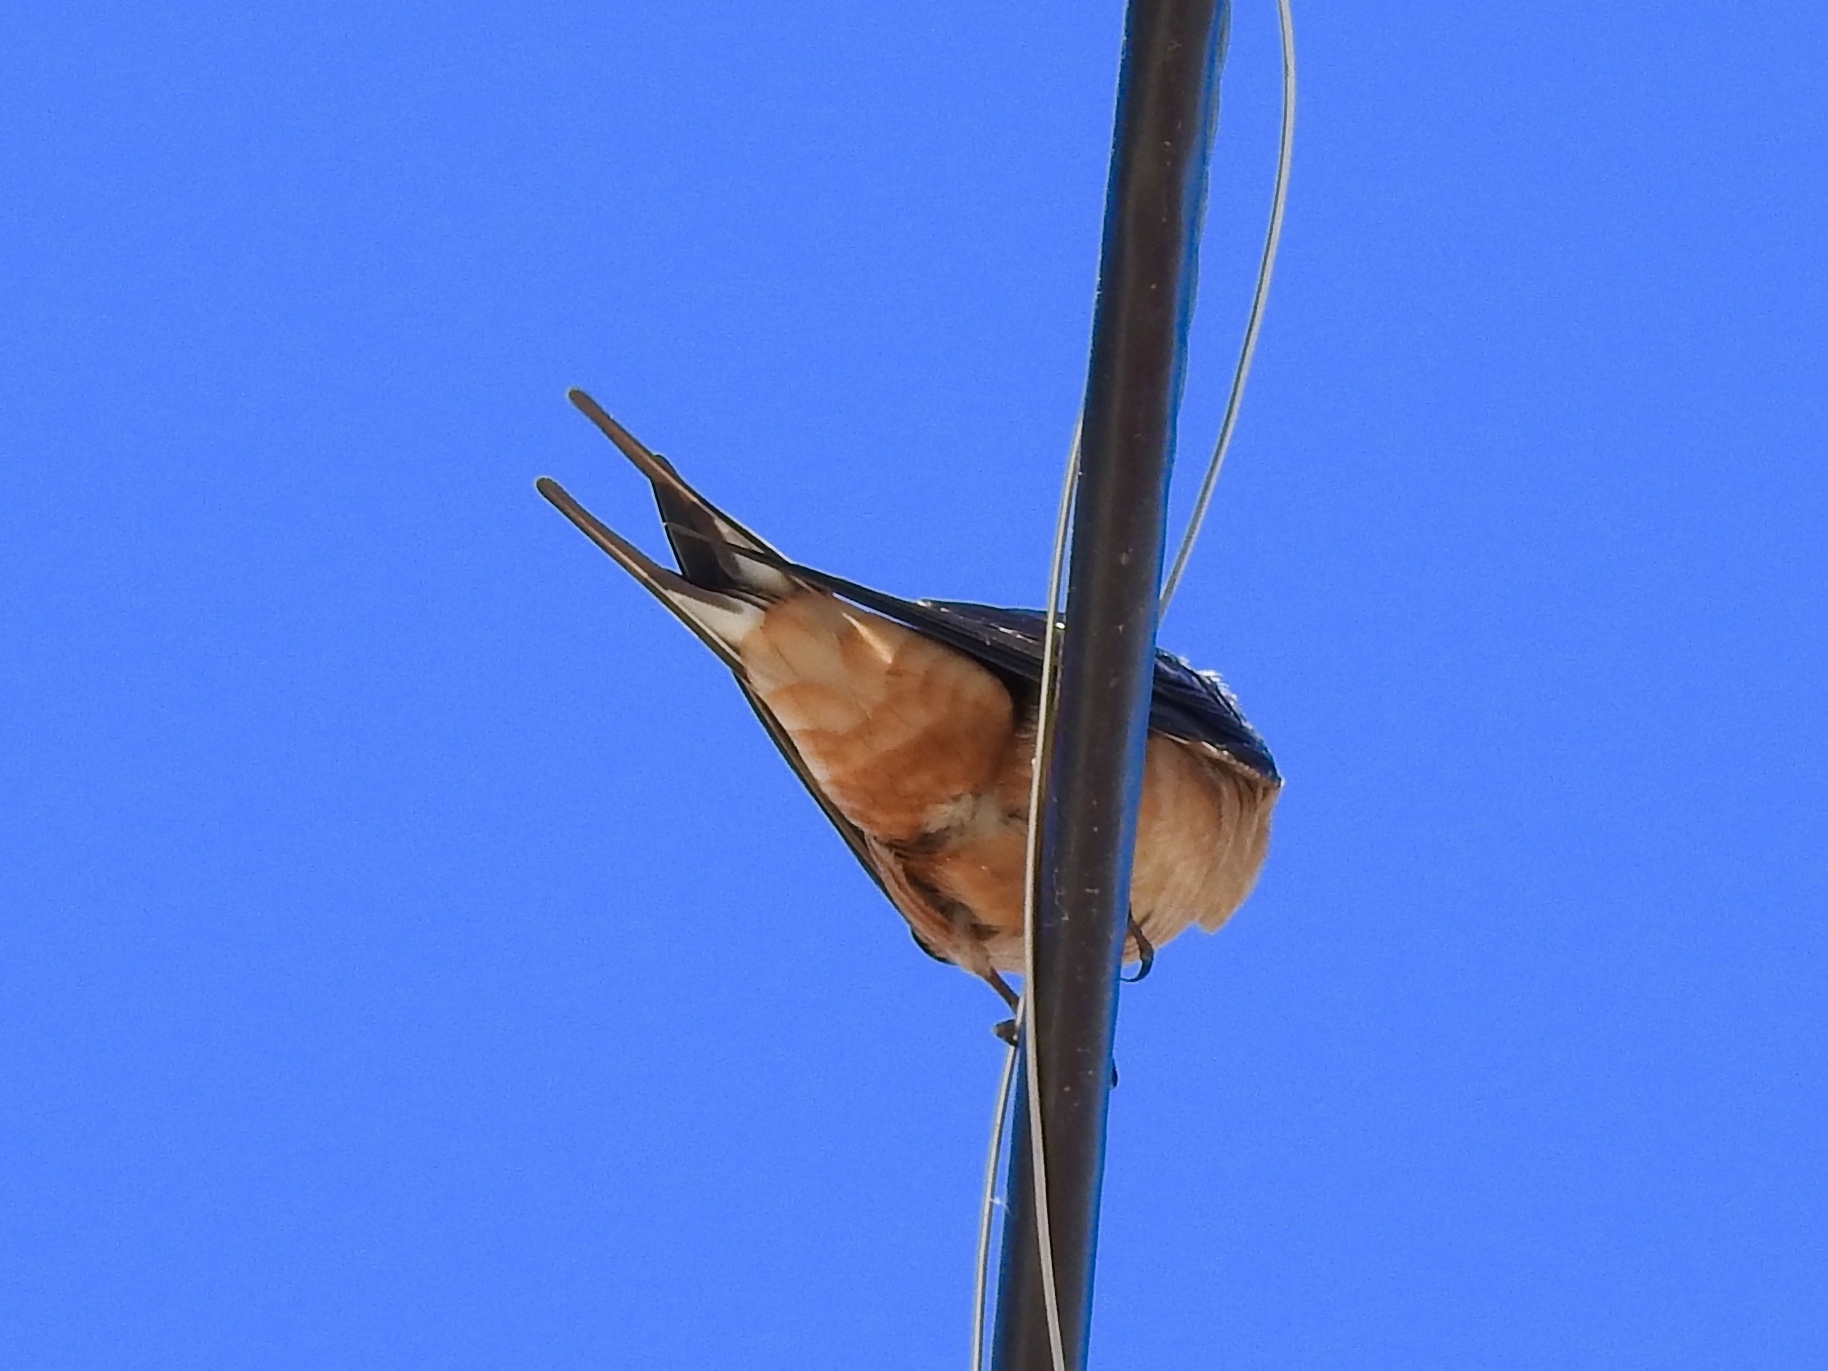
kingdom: Animalia
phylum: Chordata
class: Aves
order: Passeriformes
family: Hirundinidae
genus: Hirundo
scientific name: Hirundo rustica
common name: Barn swallow
